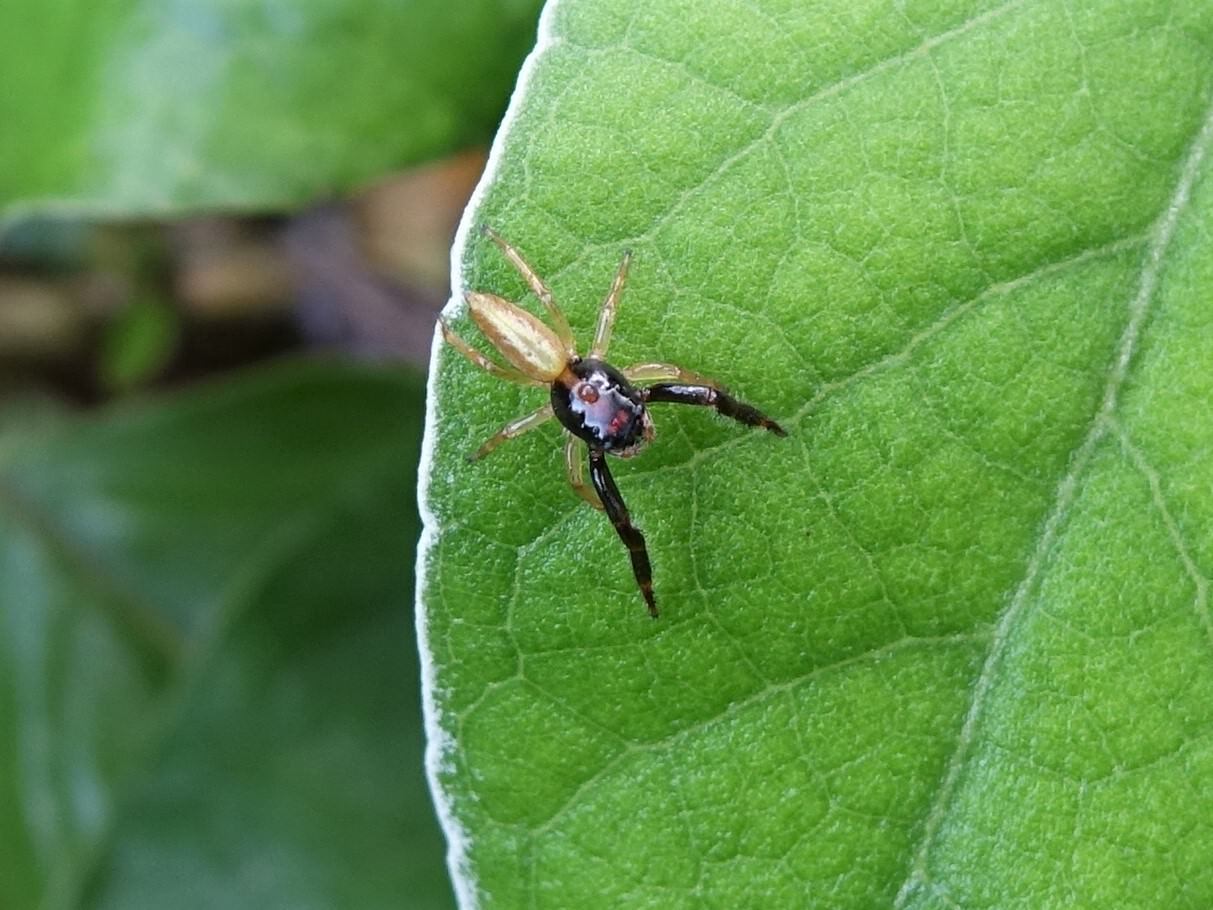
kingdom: Animalia
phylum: Arthropoda
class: Arachnida
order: Araneae
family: Salticidae
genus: Trite
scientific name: Trite planiceps
